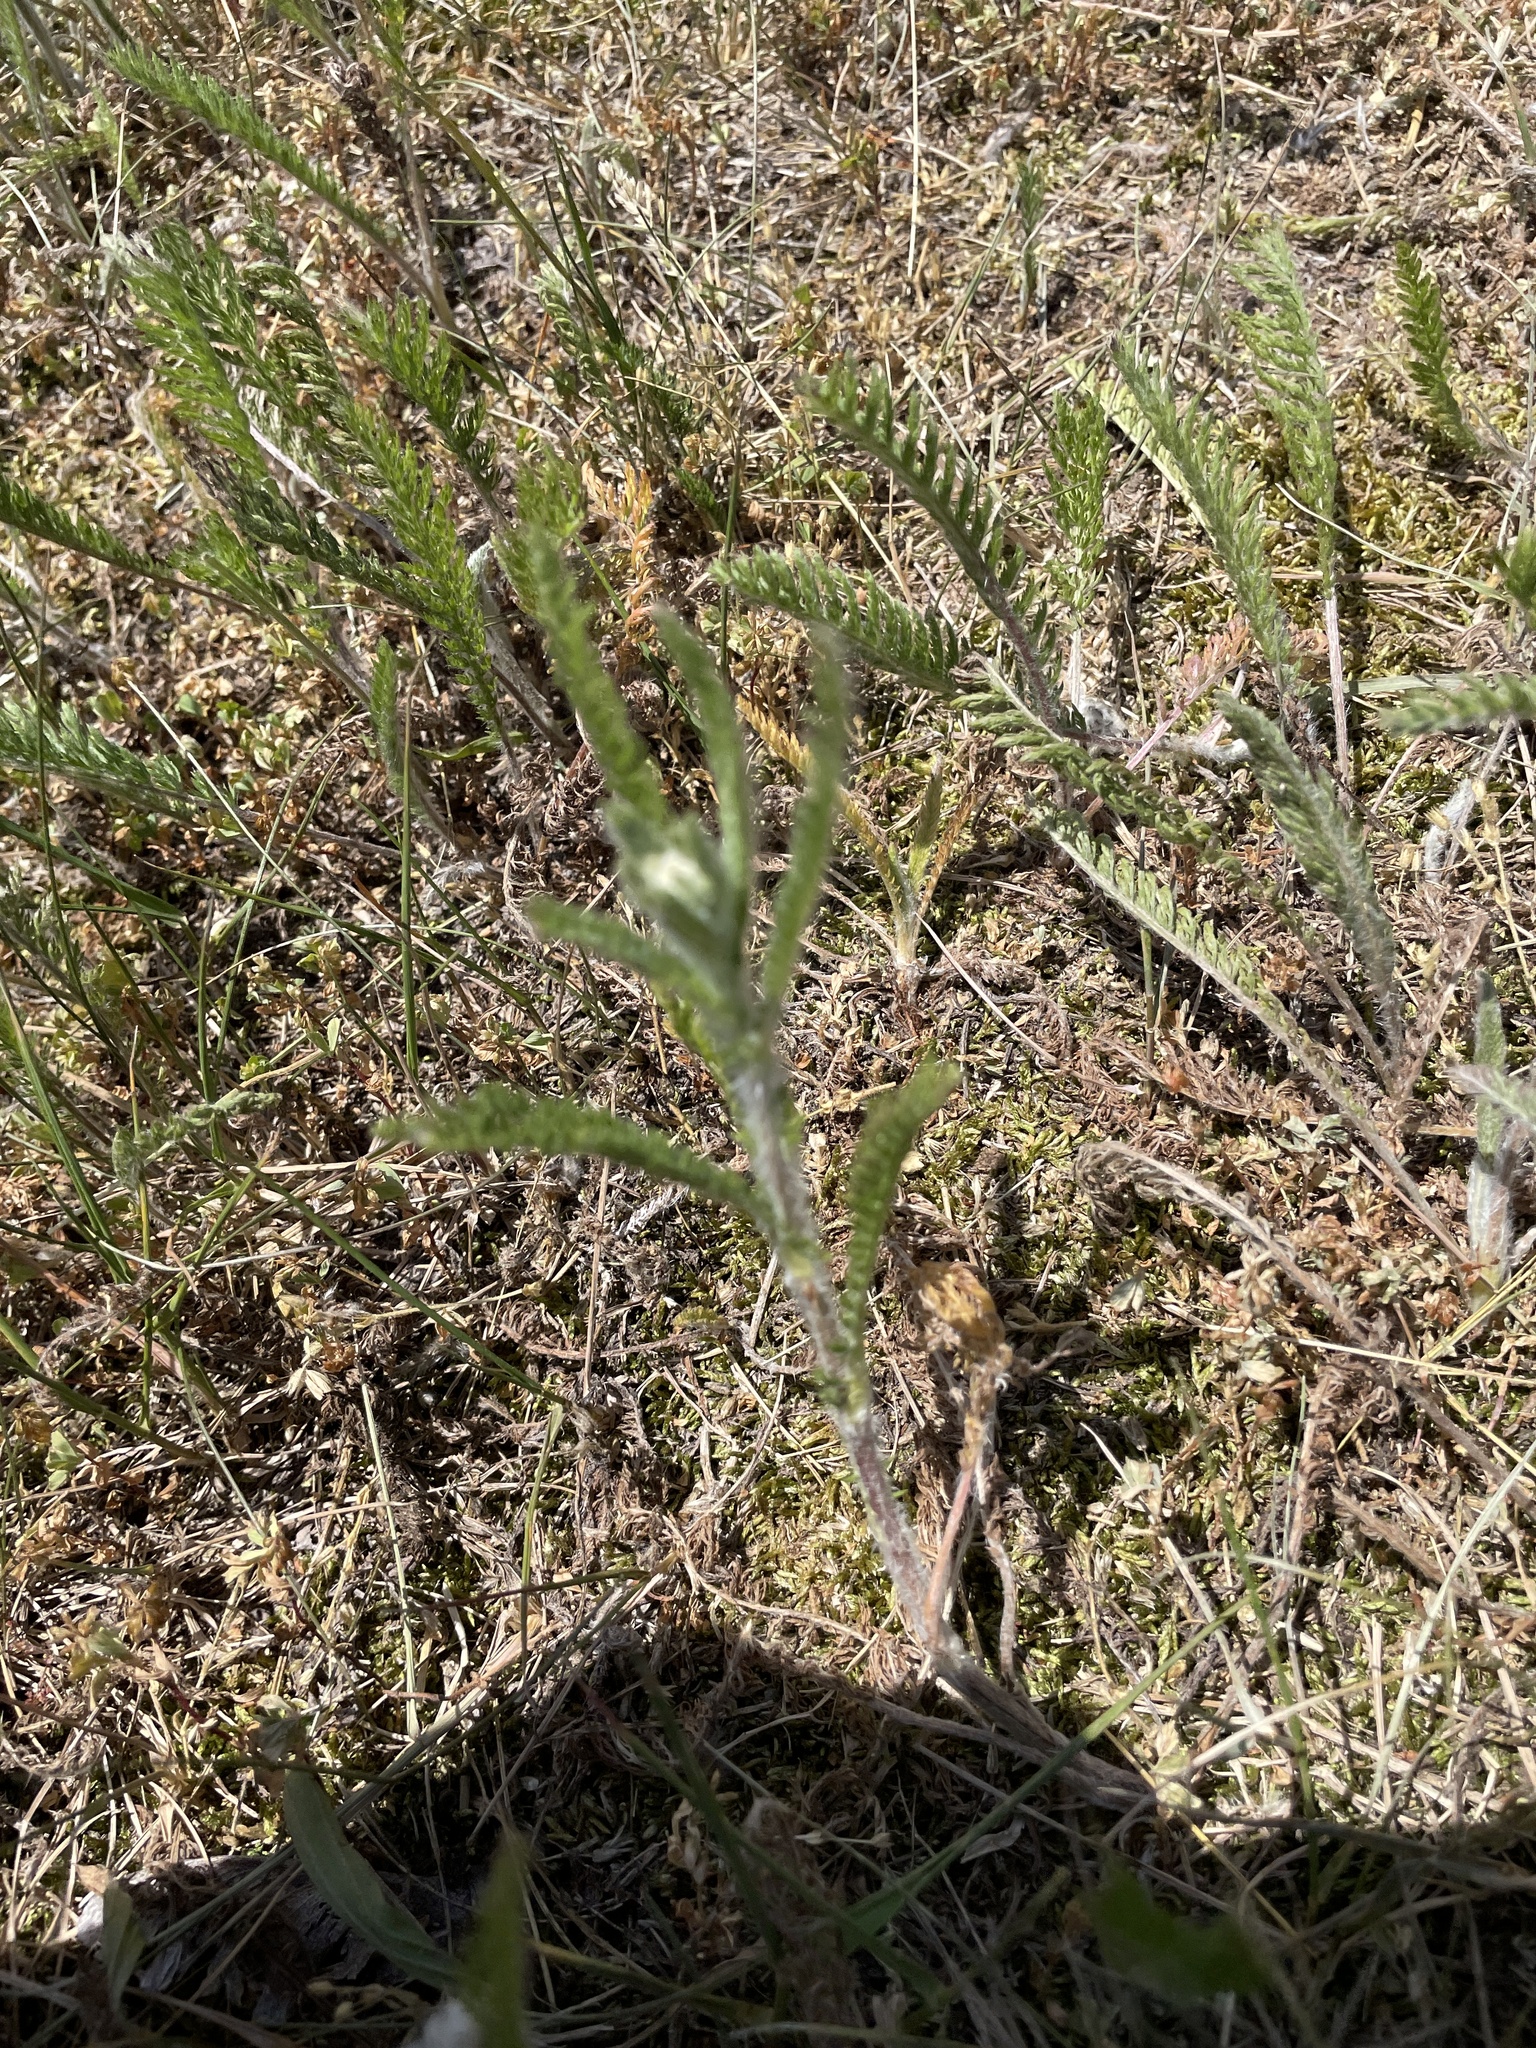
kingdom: Plantae
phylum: Tracheophyta
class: Magnoliopsida
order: Asterales
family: Asteraceae
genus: Achillea
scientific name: Achillea millefolium
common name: Yarrow
